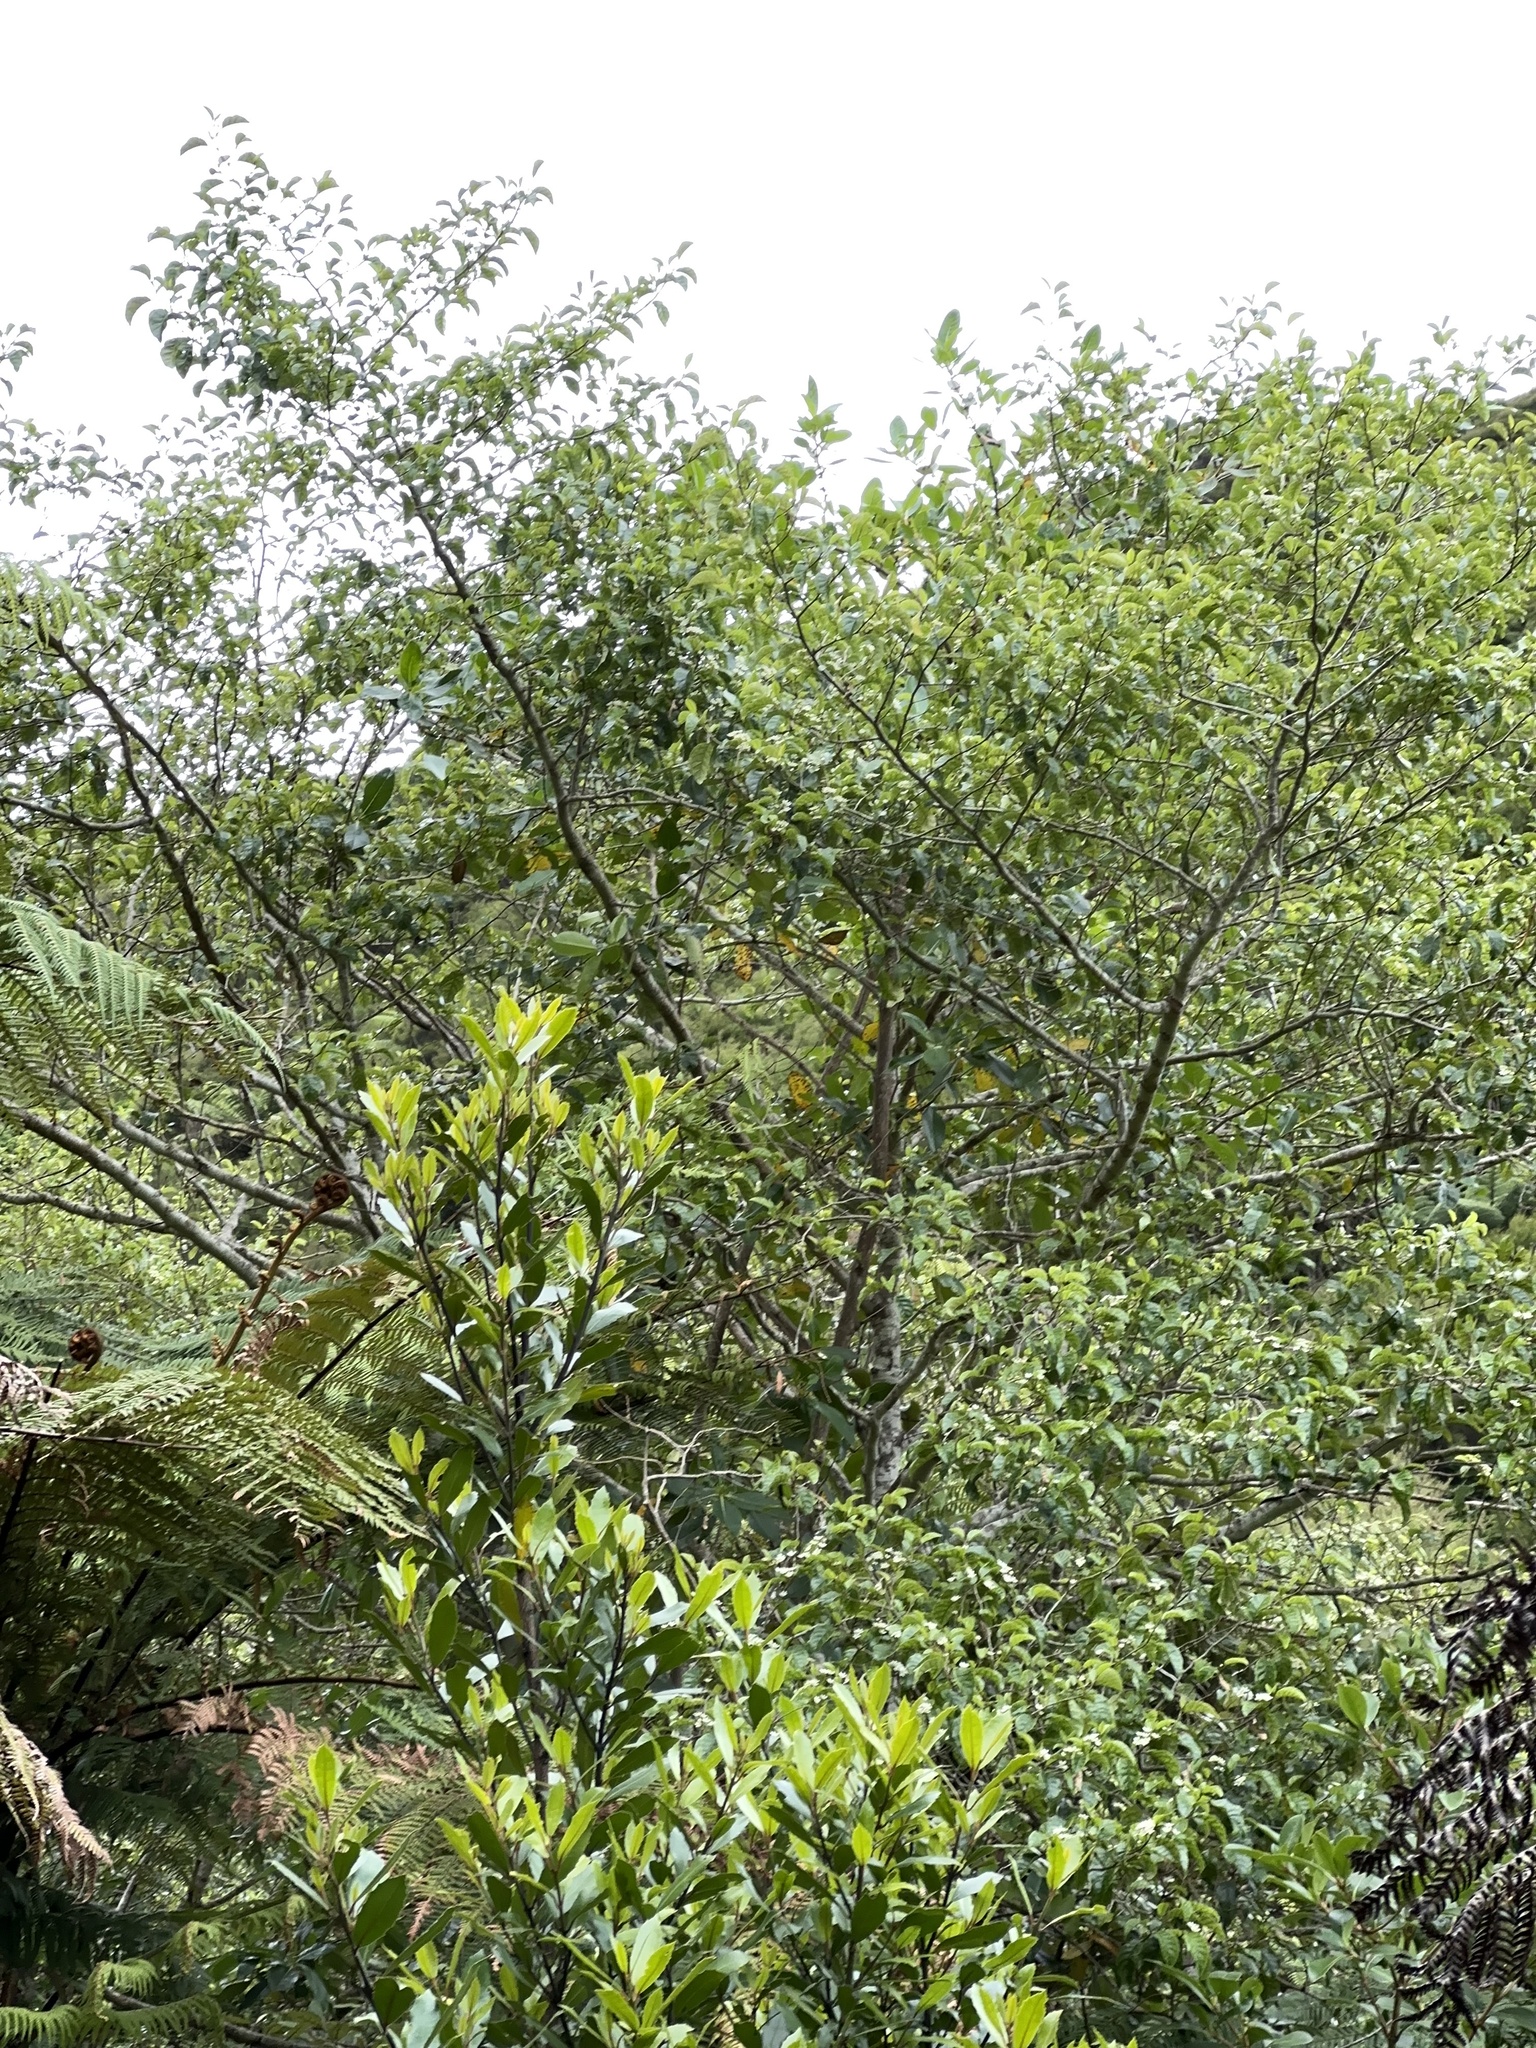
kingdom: Plantae
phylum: Tracheophyta
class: Magnoliopsida
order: Asterales
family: Rousseaceae
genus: Carpodetus
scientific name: Carpodetus serratus
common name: White mapau
